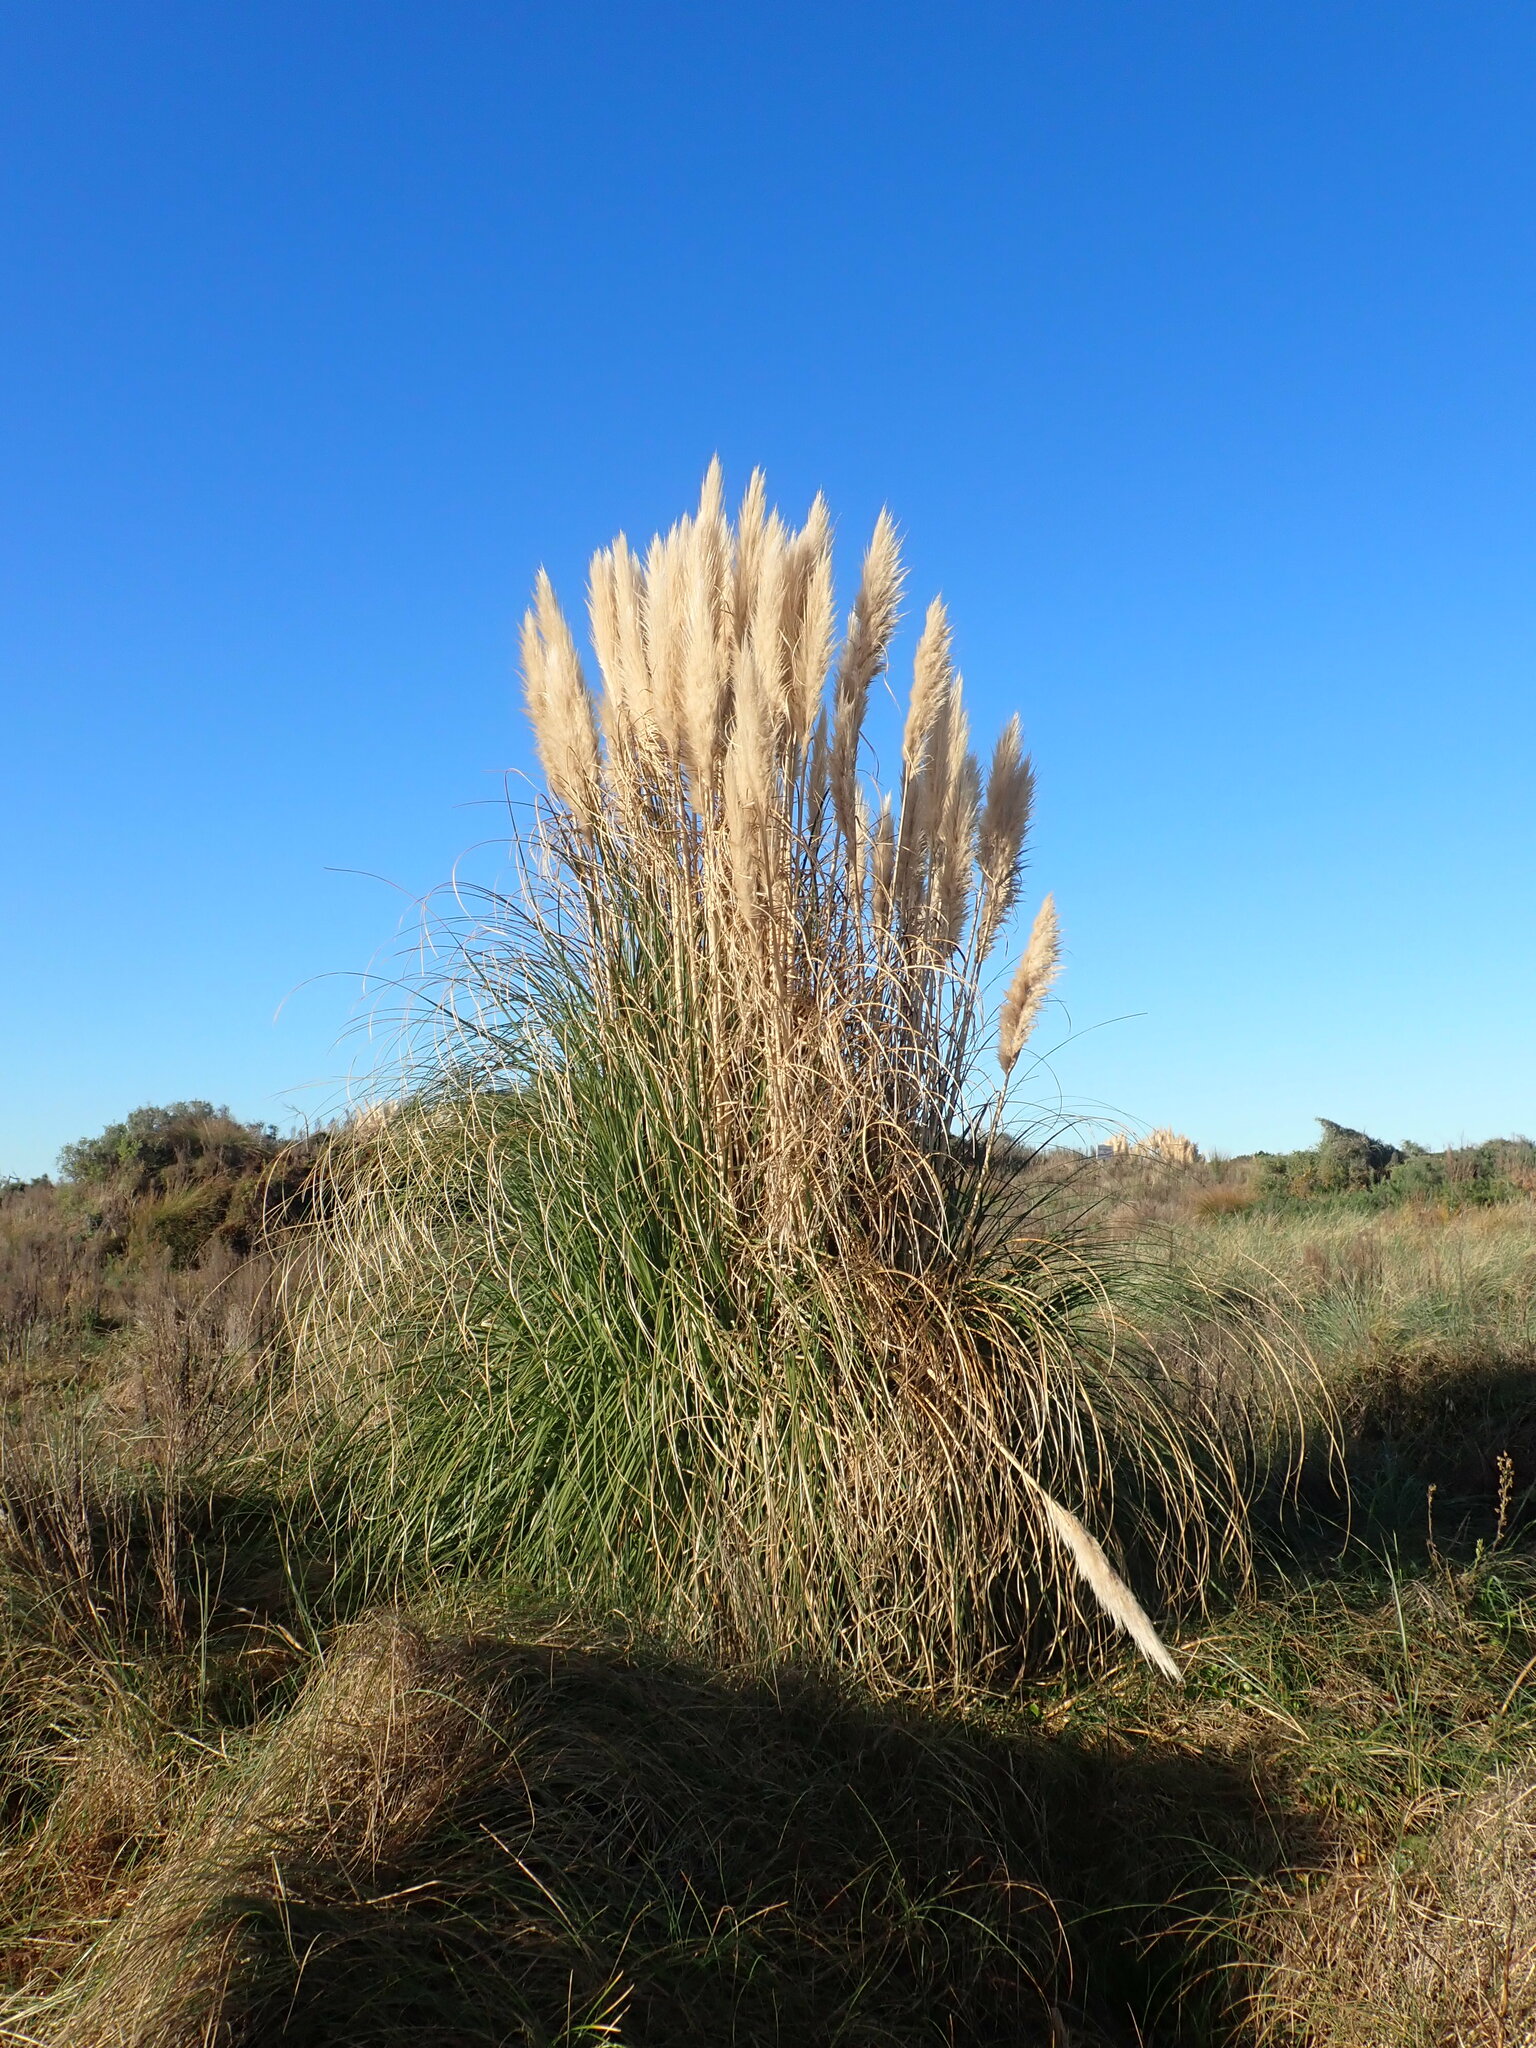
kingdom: Plantae
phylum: Tracheophyta
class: Liliopsida
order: Poales
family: Poaceae
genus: Cortaderia
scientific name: Cortaderia selloana
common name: Uruguayan pampas grass
